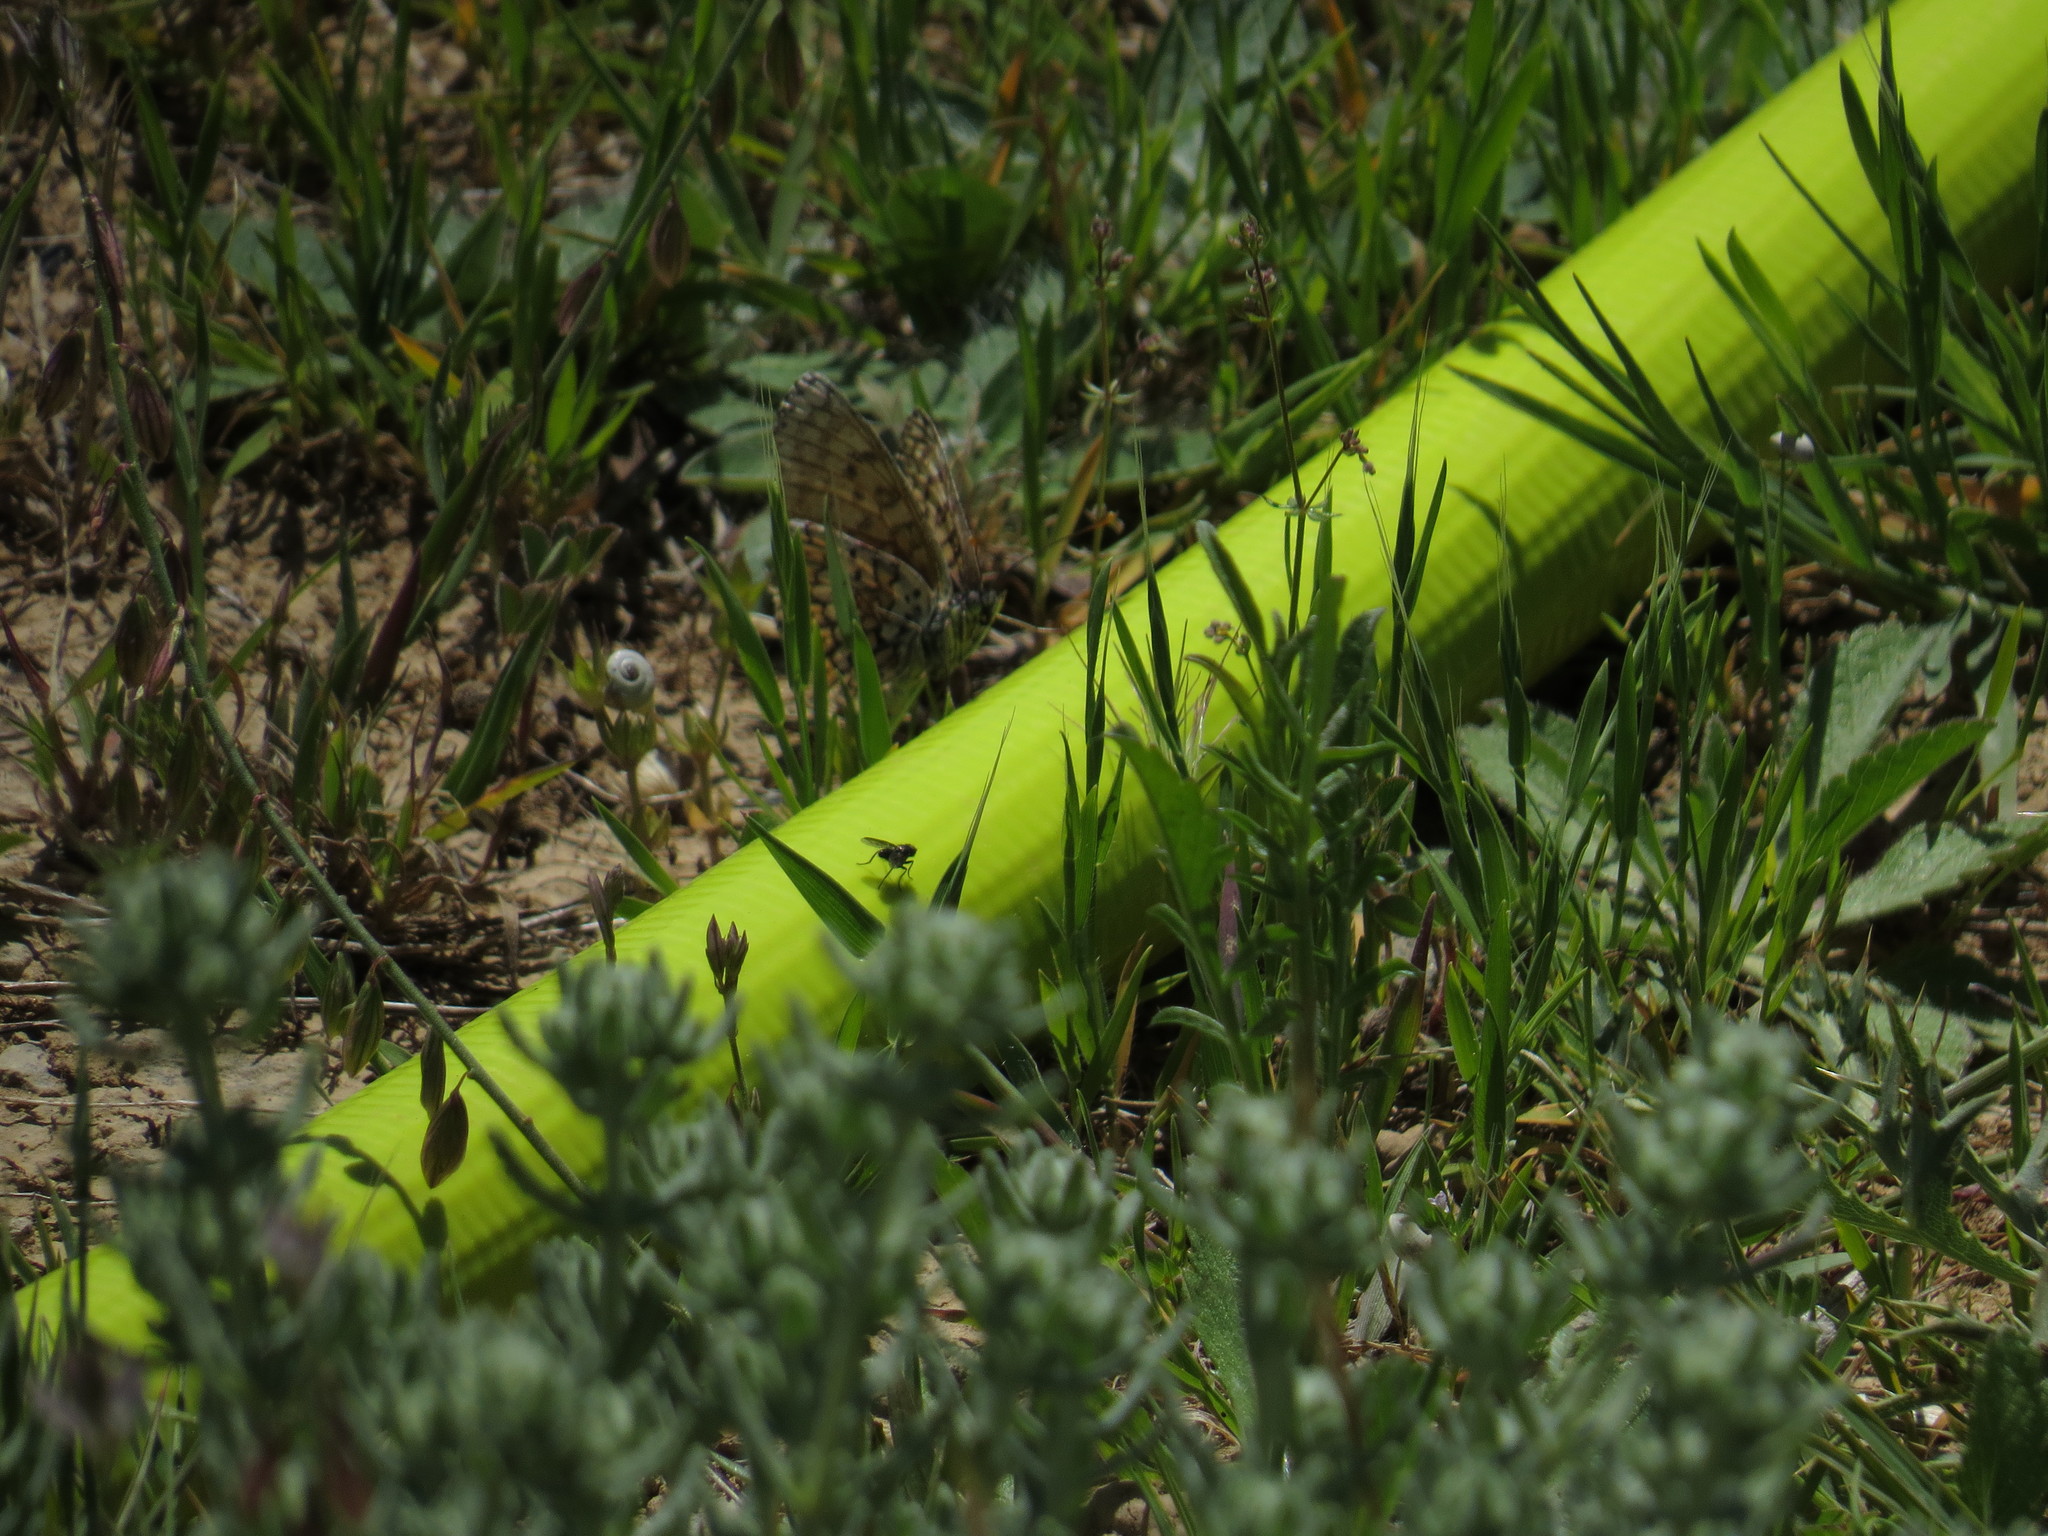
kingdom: Animalia
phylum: Arthropoda
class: Insecta
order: Lepidoptera
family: Nymphalidae
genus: Melitaea
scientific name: Melitaea cinxia
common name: Glanville fritillary
